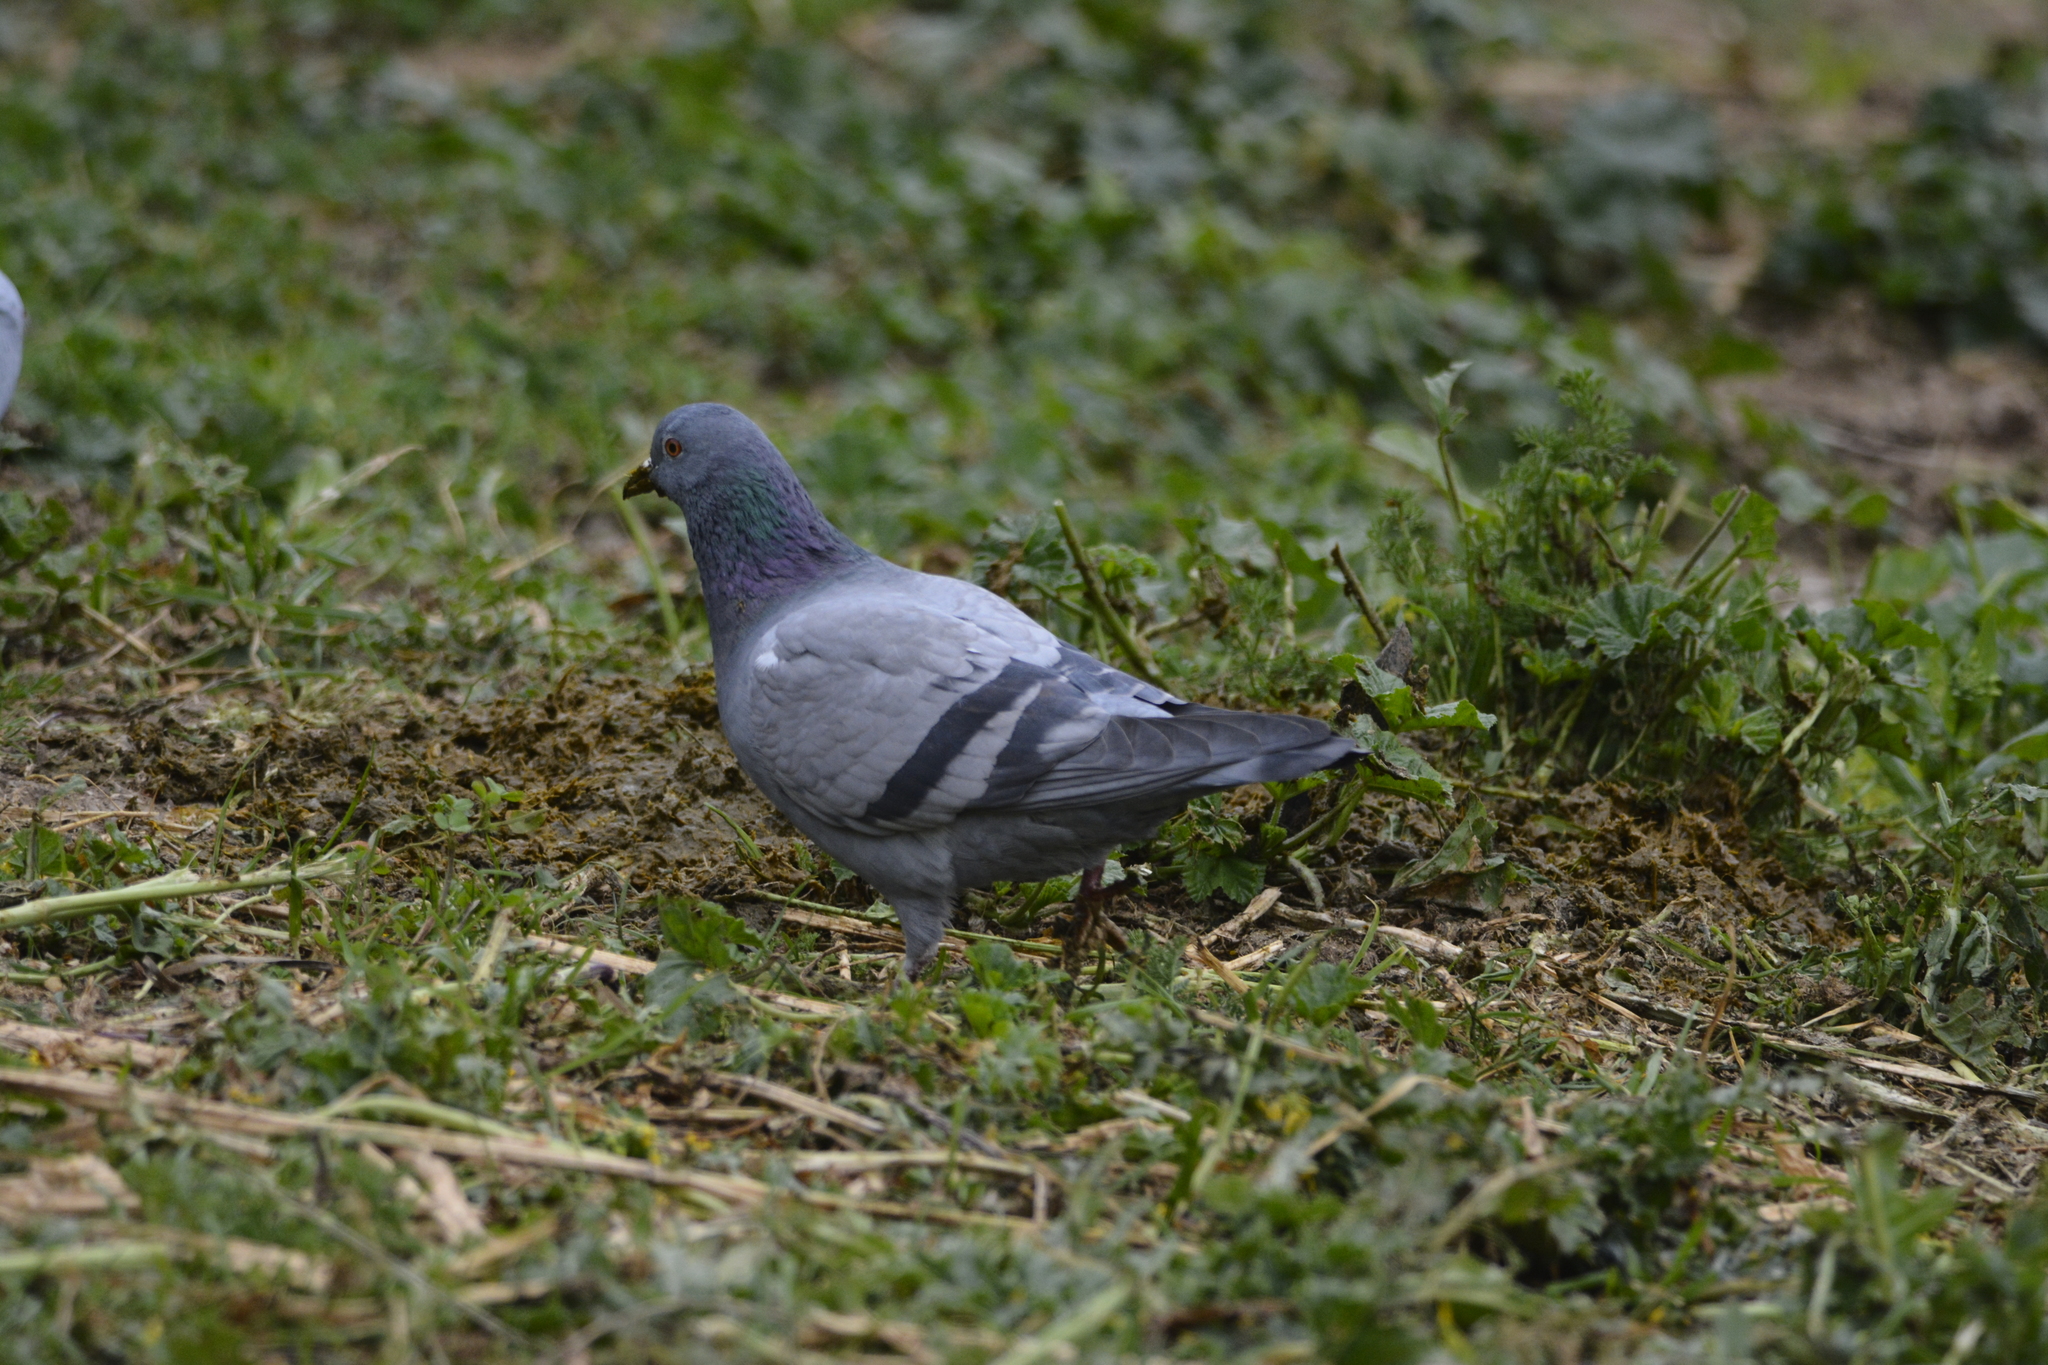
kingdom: Animalia
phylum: Chordata
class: Aves
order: Columbiformes
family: Columbidae
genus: Columba
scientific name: Columba livia
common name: Rock pigeon
